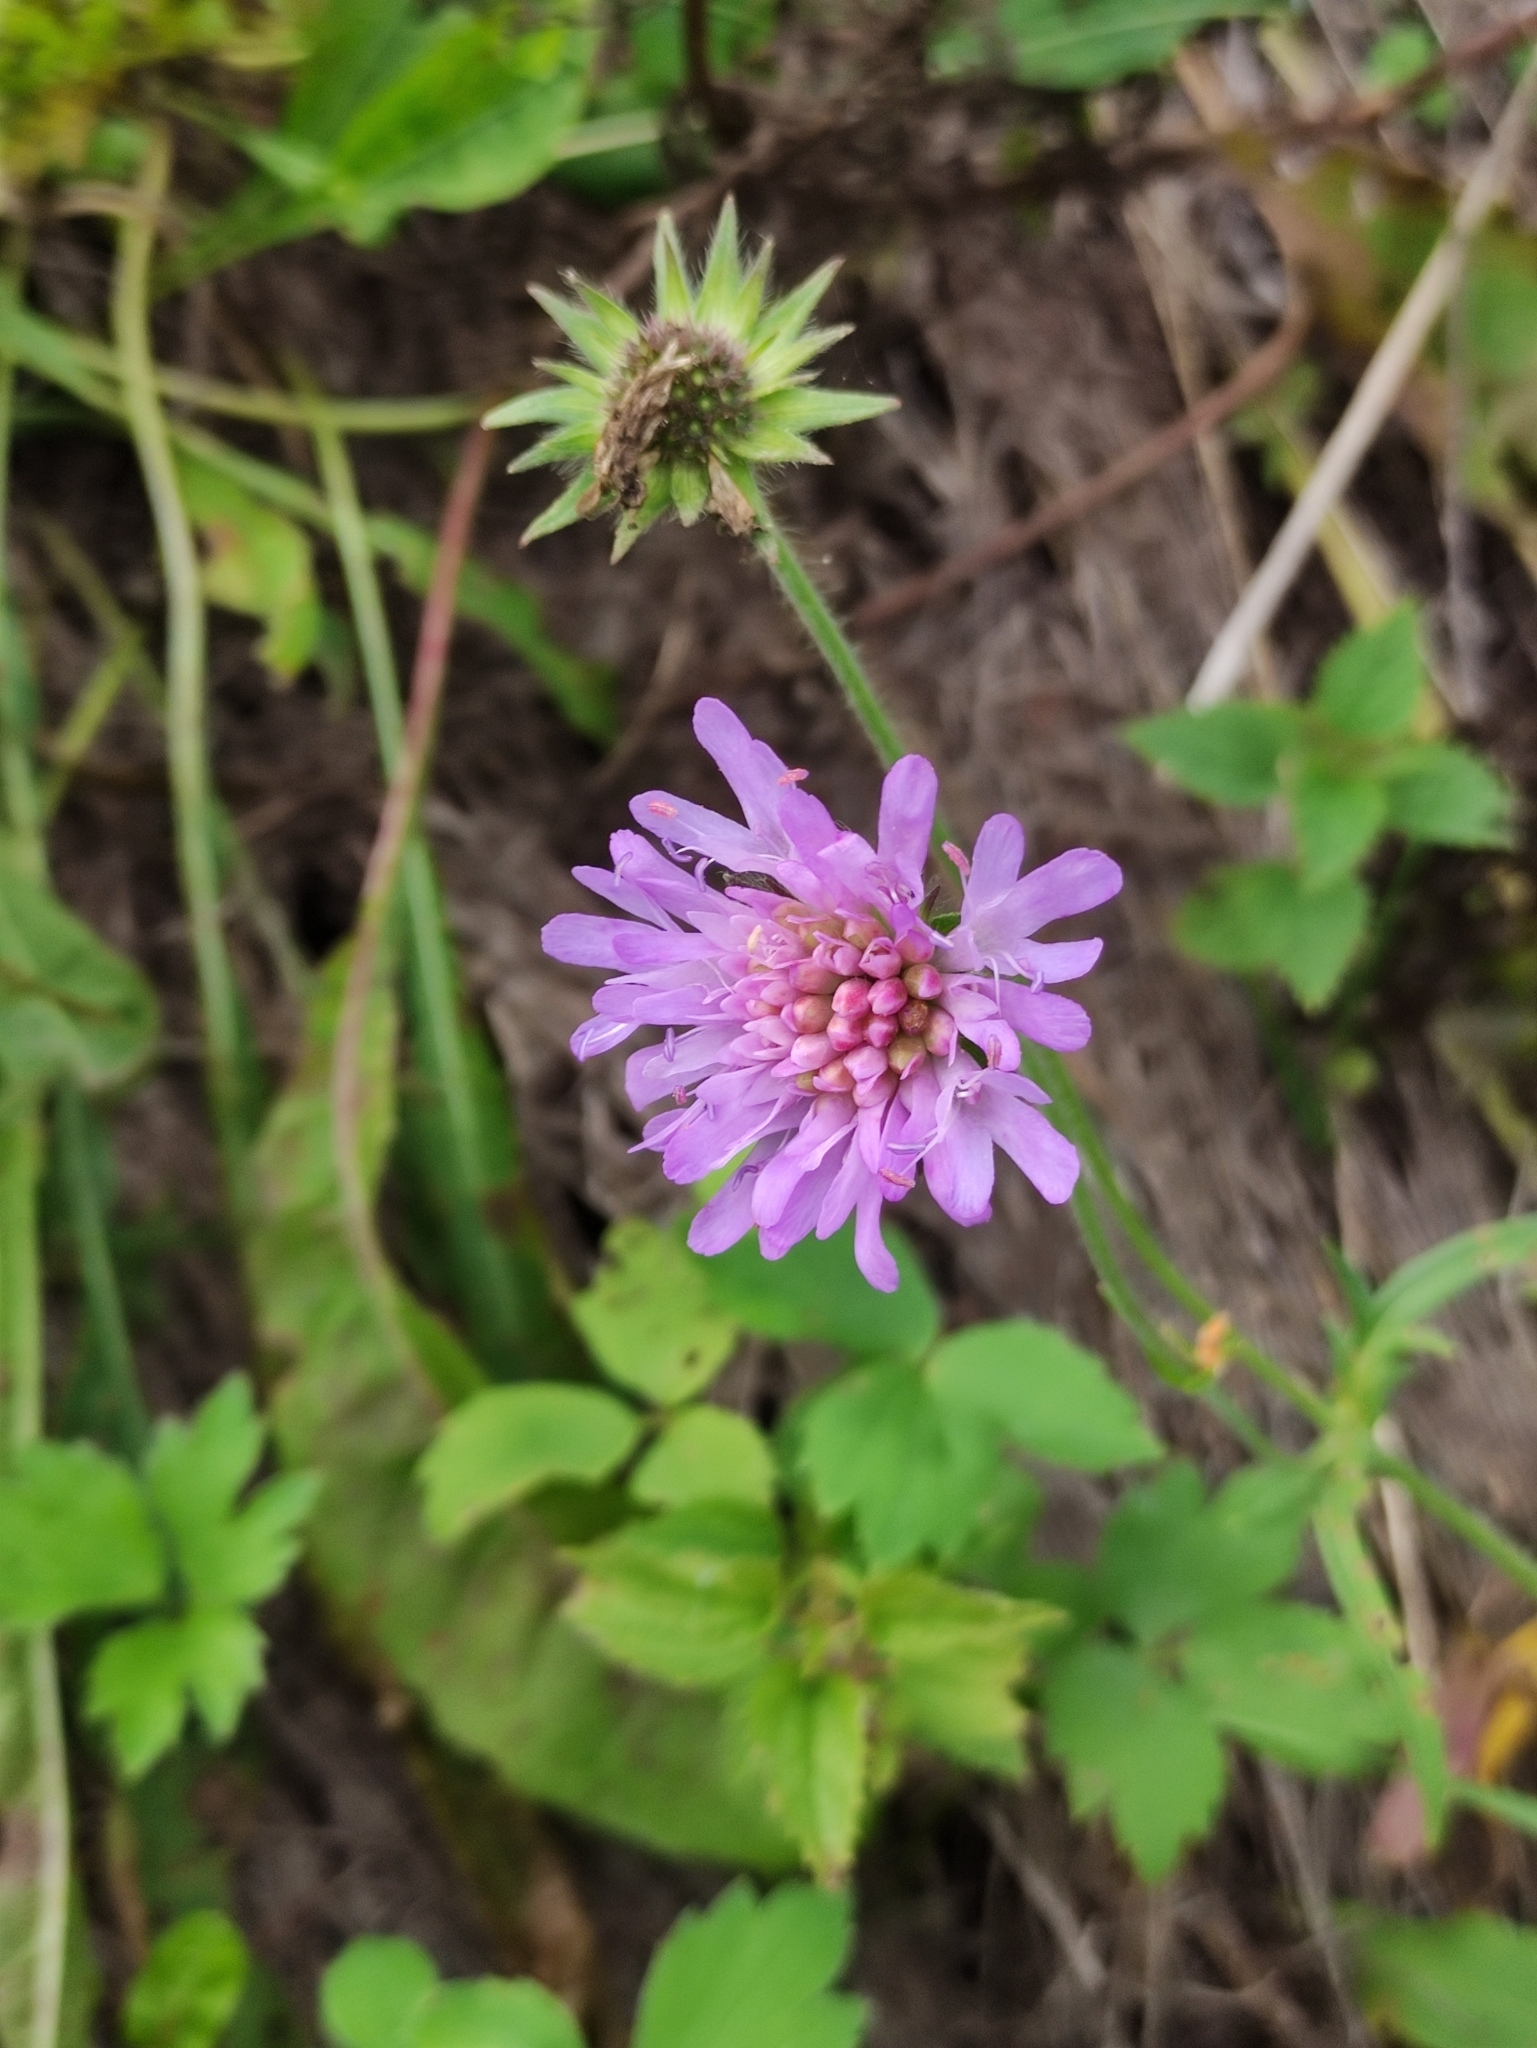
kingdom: Plantae
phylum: Tracheophyta
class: Magnoliopsida
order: Dipsacales
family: Caprifoliaceae
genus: Knautia
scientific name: Knautia arvensis
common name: Field scabiosa
